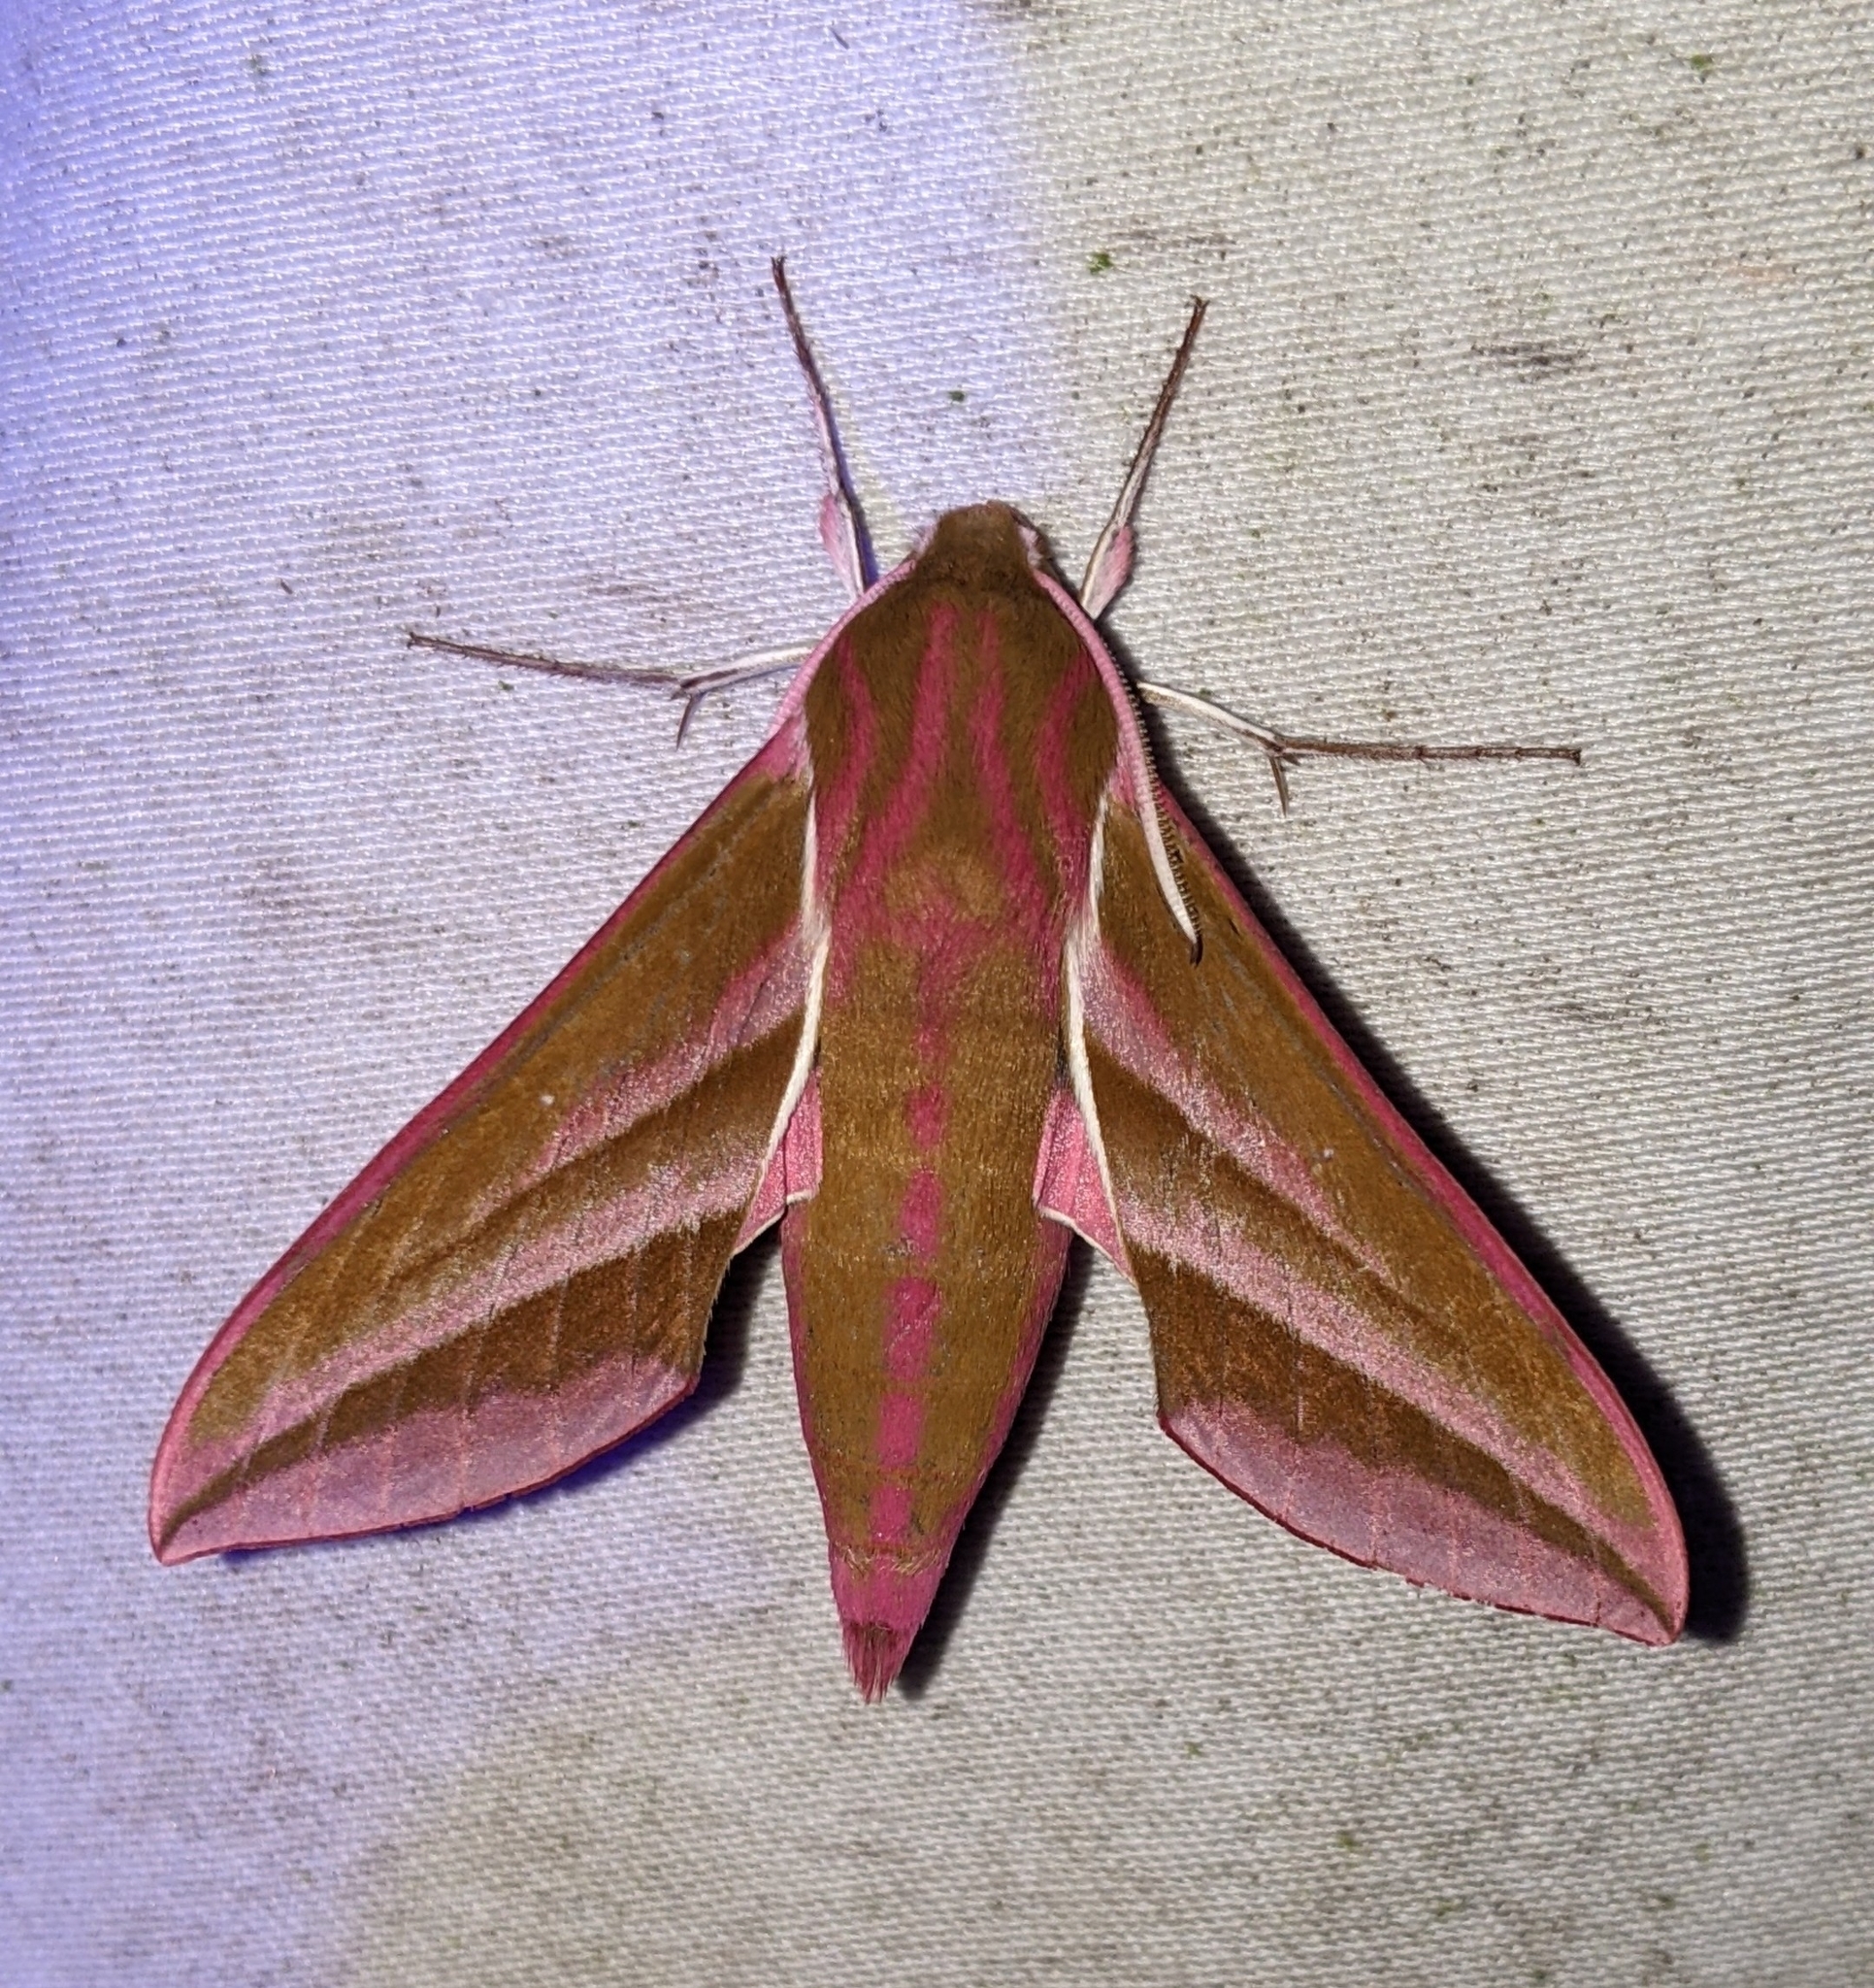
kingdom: Animalia
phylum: Arthropoda
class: Insecta
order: Lepidoptera
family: Sphingidae
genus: Deilephila
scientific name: Deilephila elpenor
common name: Elephant hawk-moth
